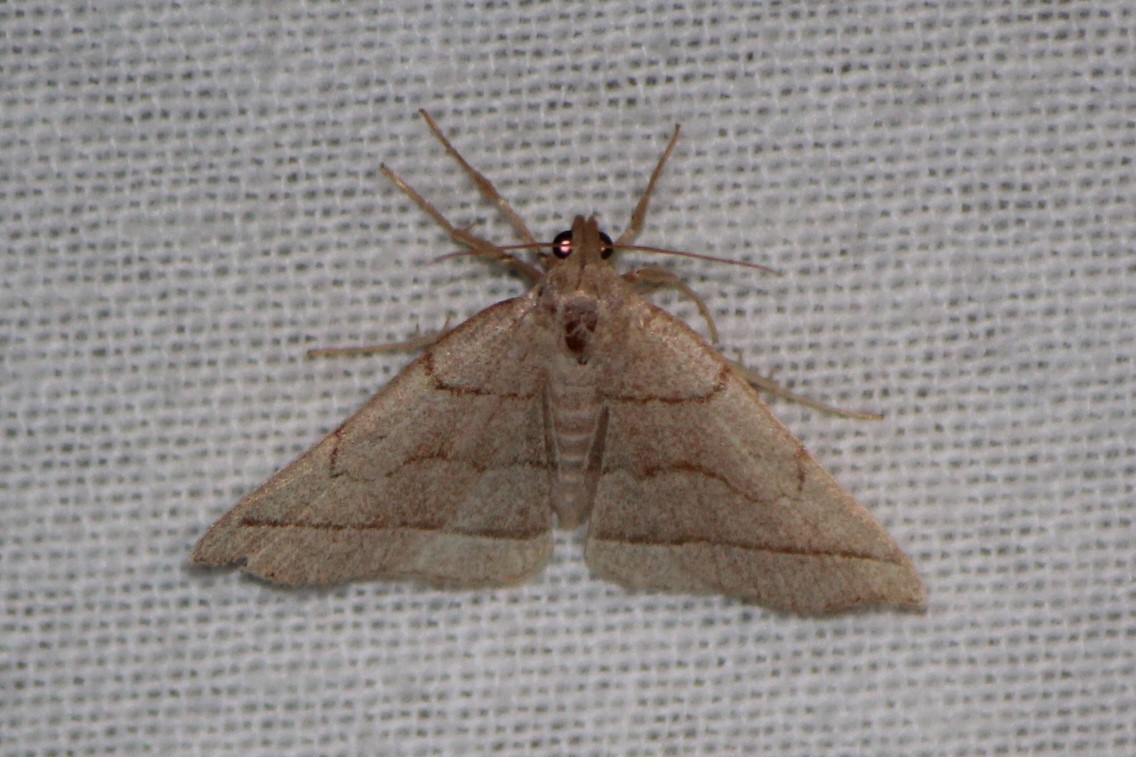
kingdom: Animalia
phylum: Arthropoda
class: Insecta
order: Lepidoptera
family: Erebidae
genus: Zanclognatha
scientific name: Zanclognatha cruralis
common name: Early fan-foot
